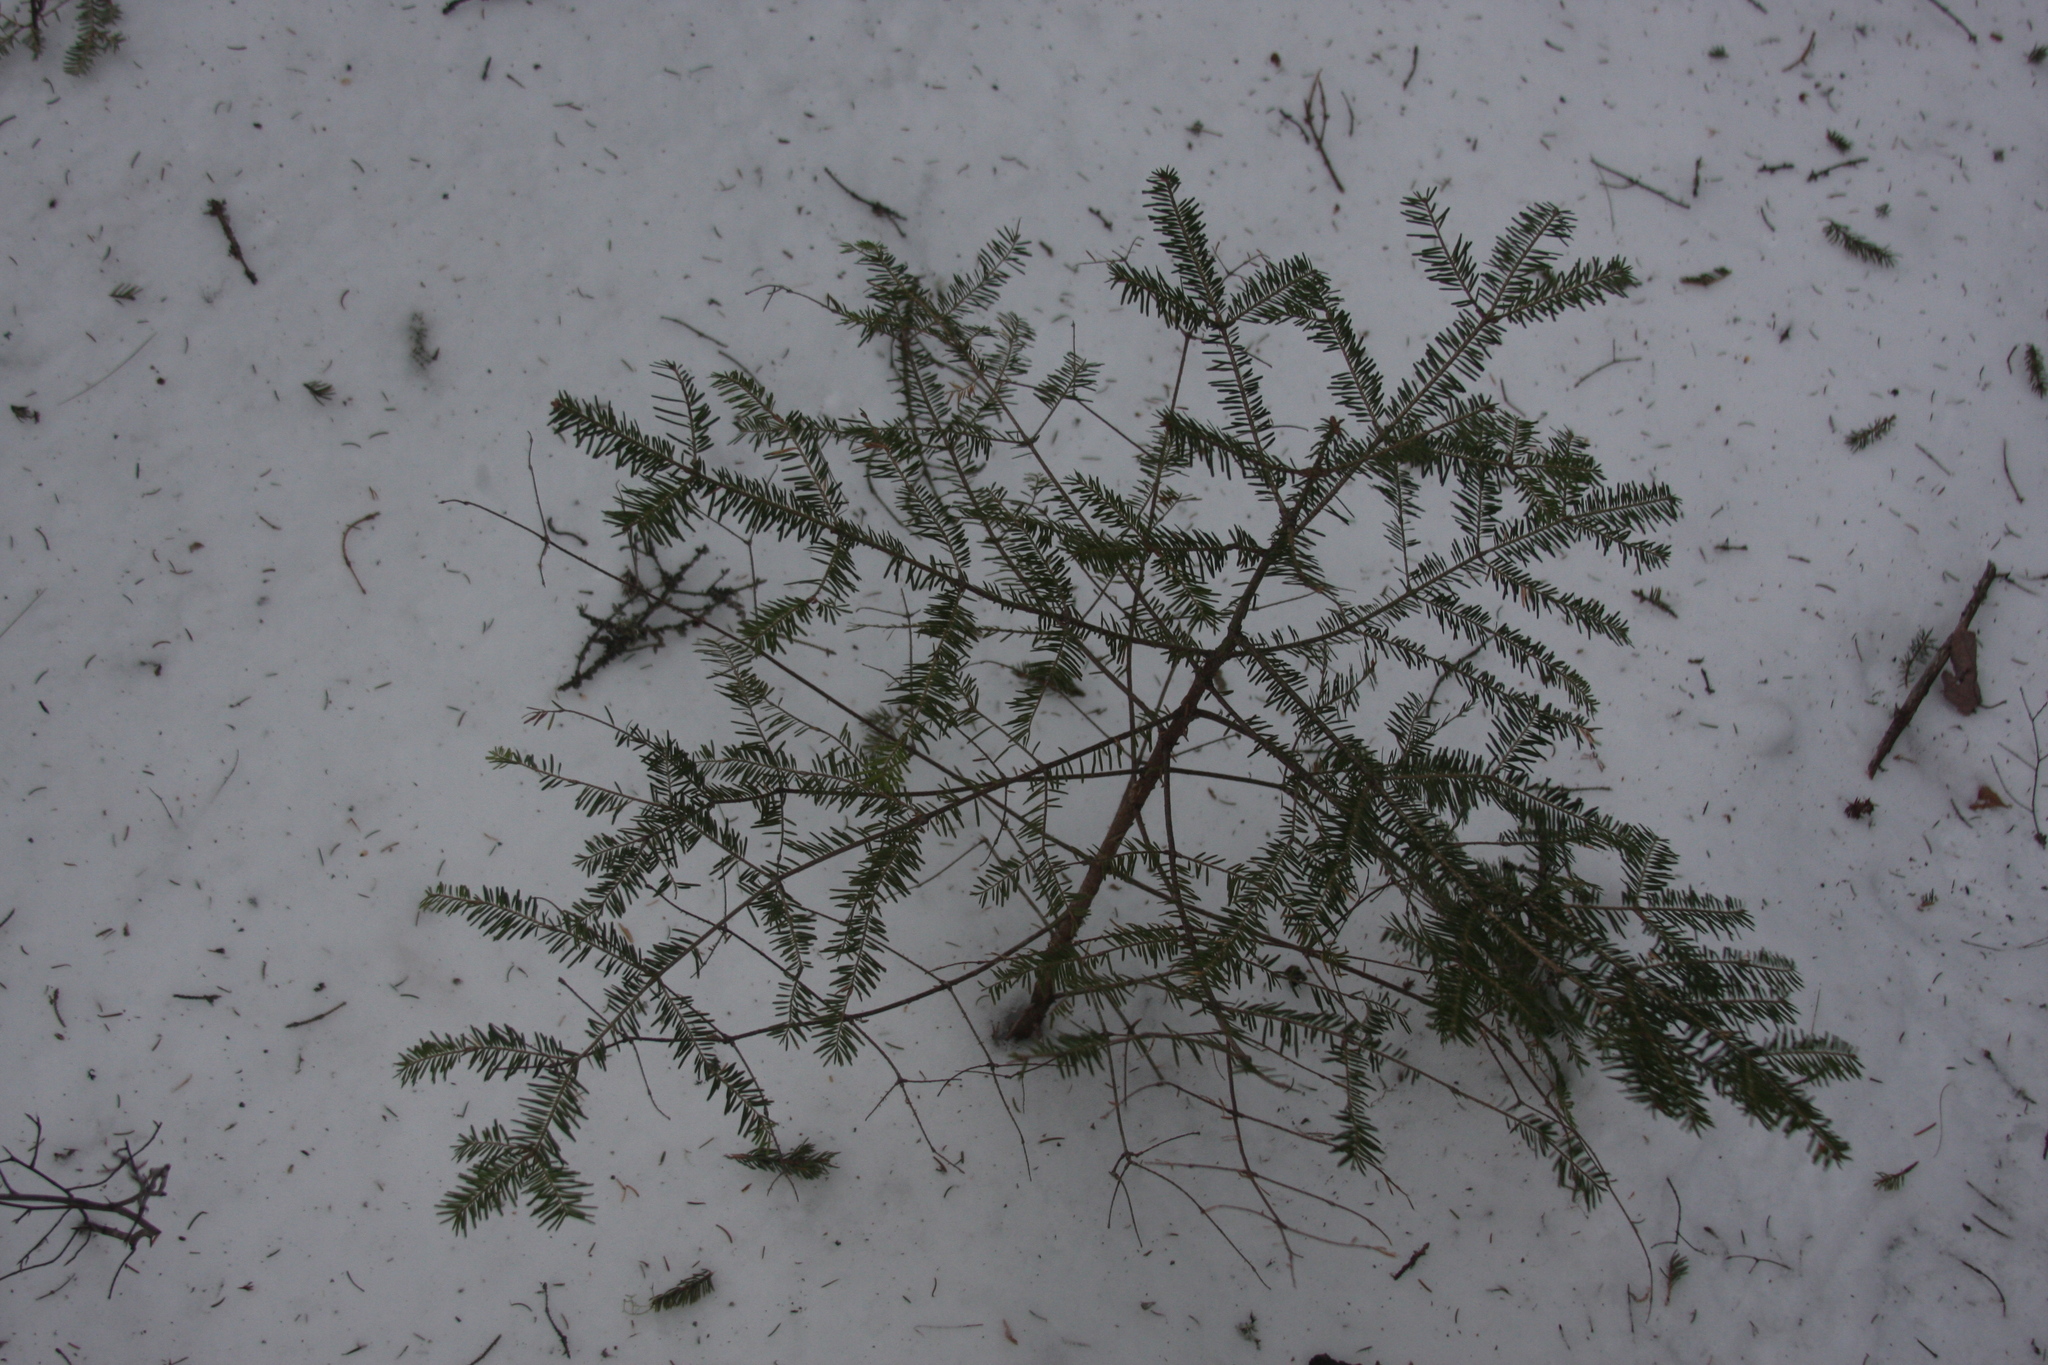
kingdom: Plantae
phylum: Tracheophyta
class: Pinopsida
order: Pinales
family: Pinaceae
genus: Abies
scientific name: Abies balsamea
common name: Balsam fir
